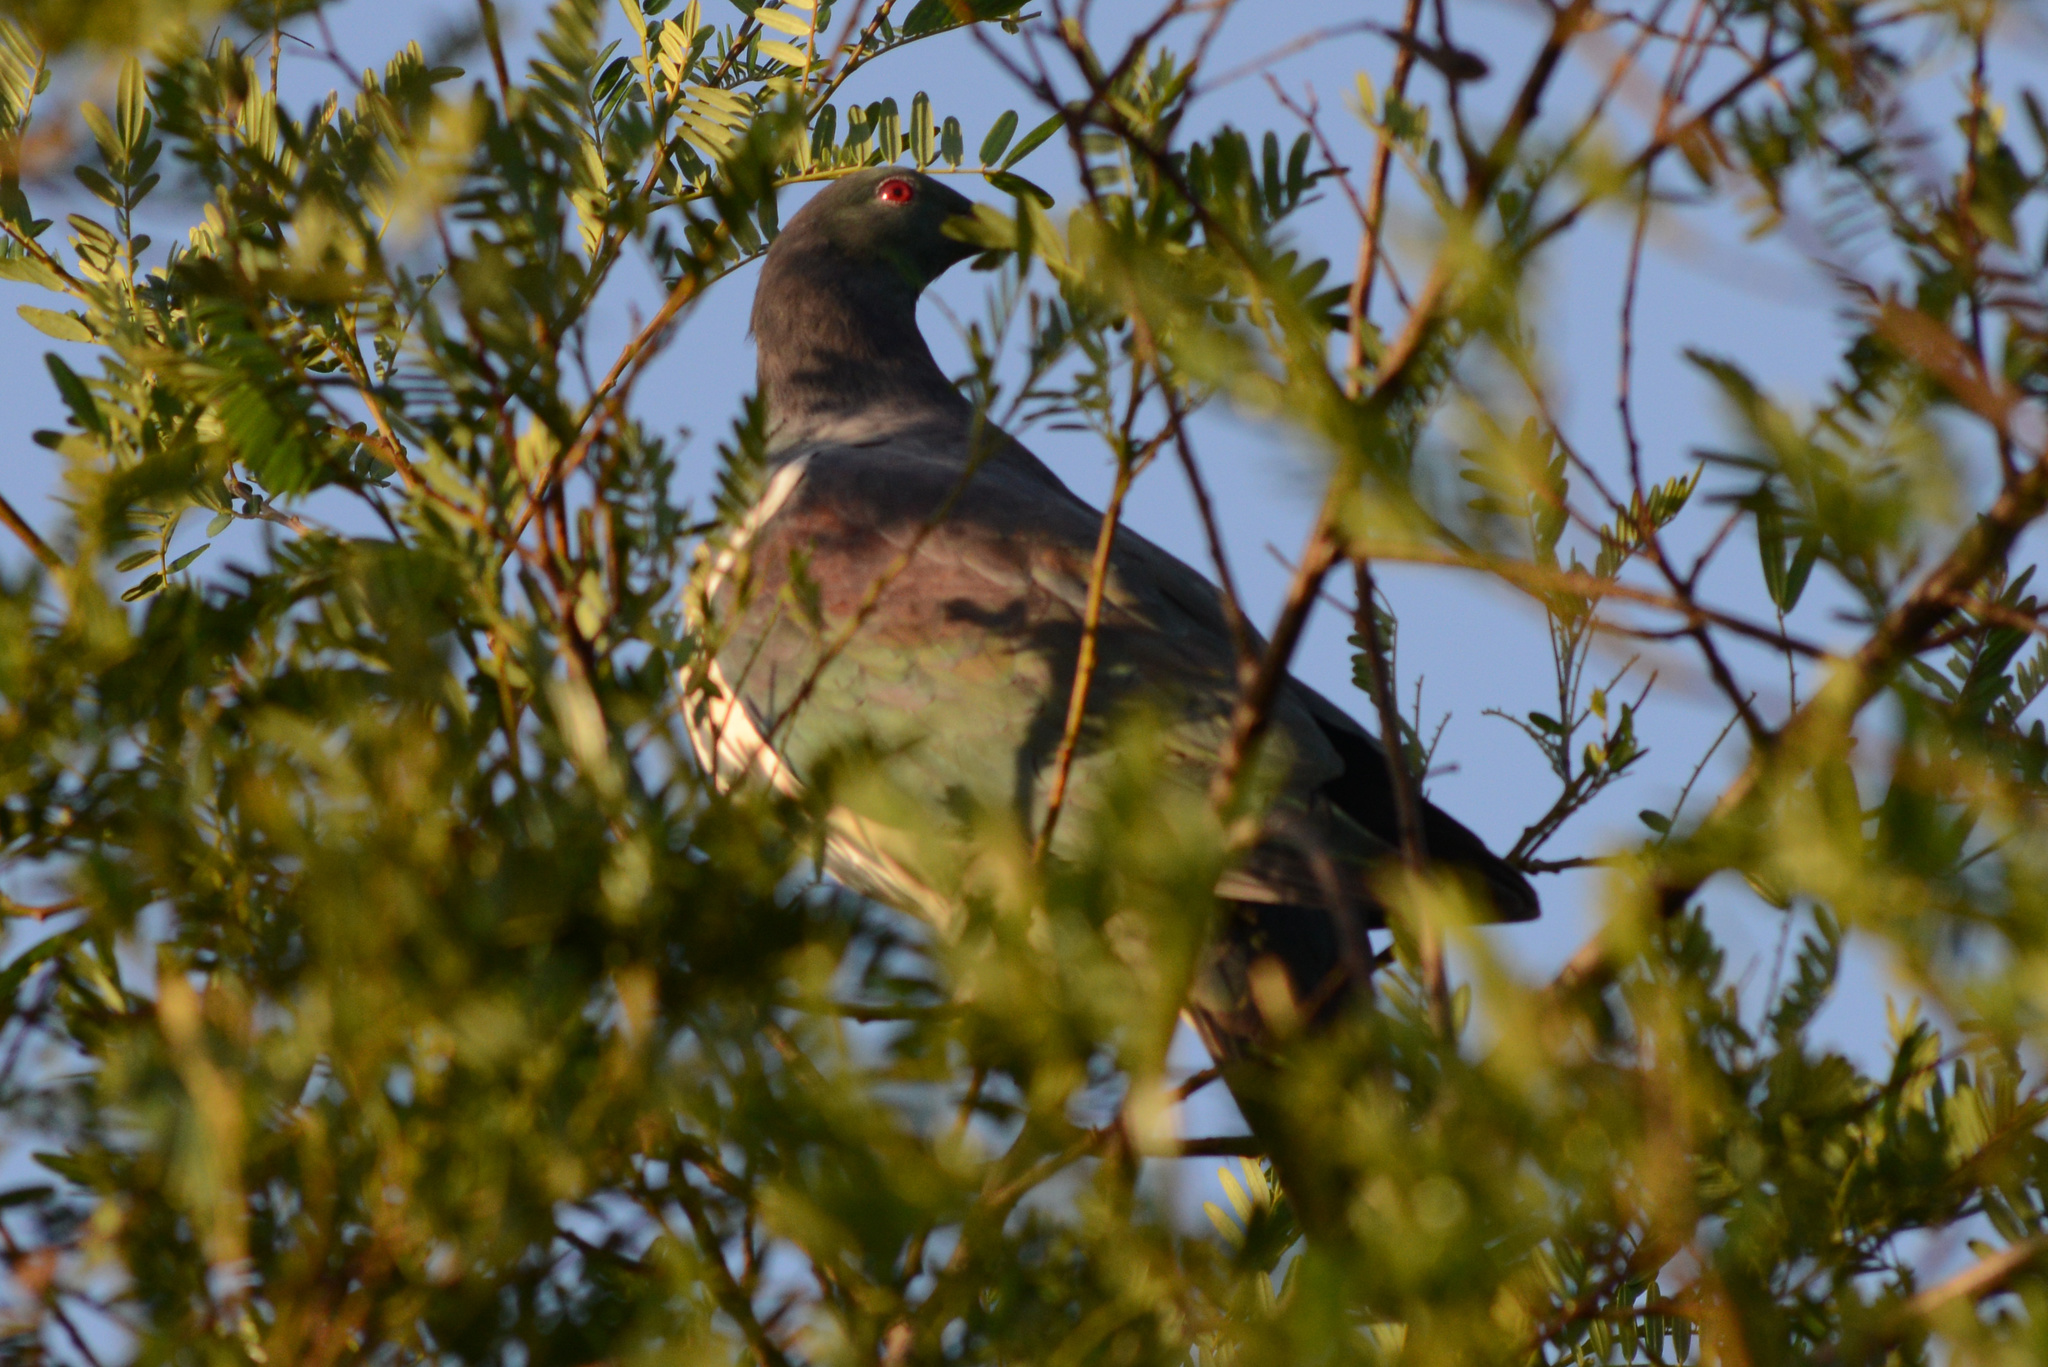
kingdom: Animalia
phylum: Chordata
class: Aves
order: Columbiformes
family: Columbidae
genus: Hemiphaga
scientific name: Hemiphaga novaeseelandiae
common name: New zealand pigeon
